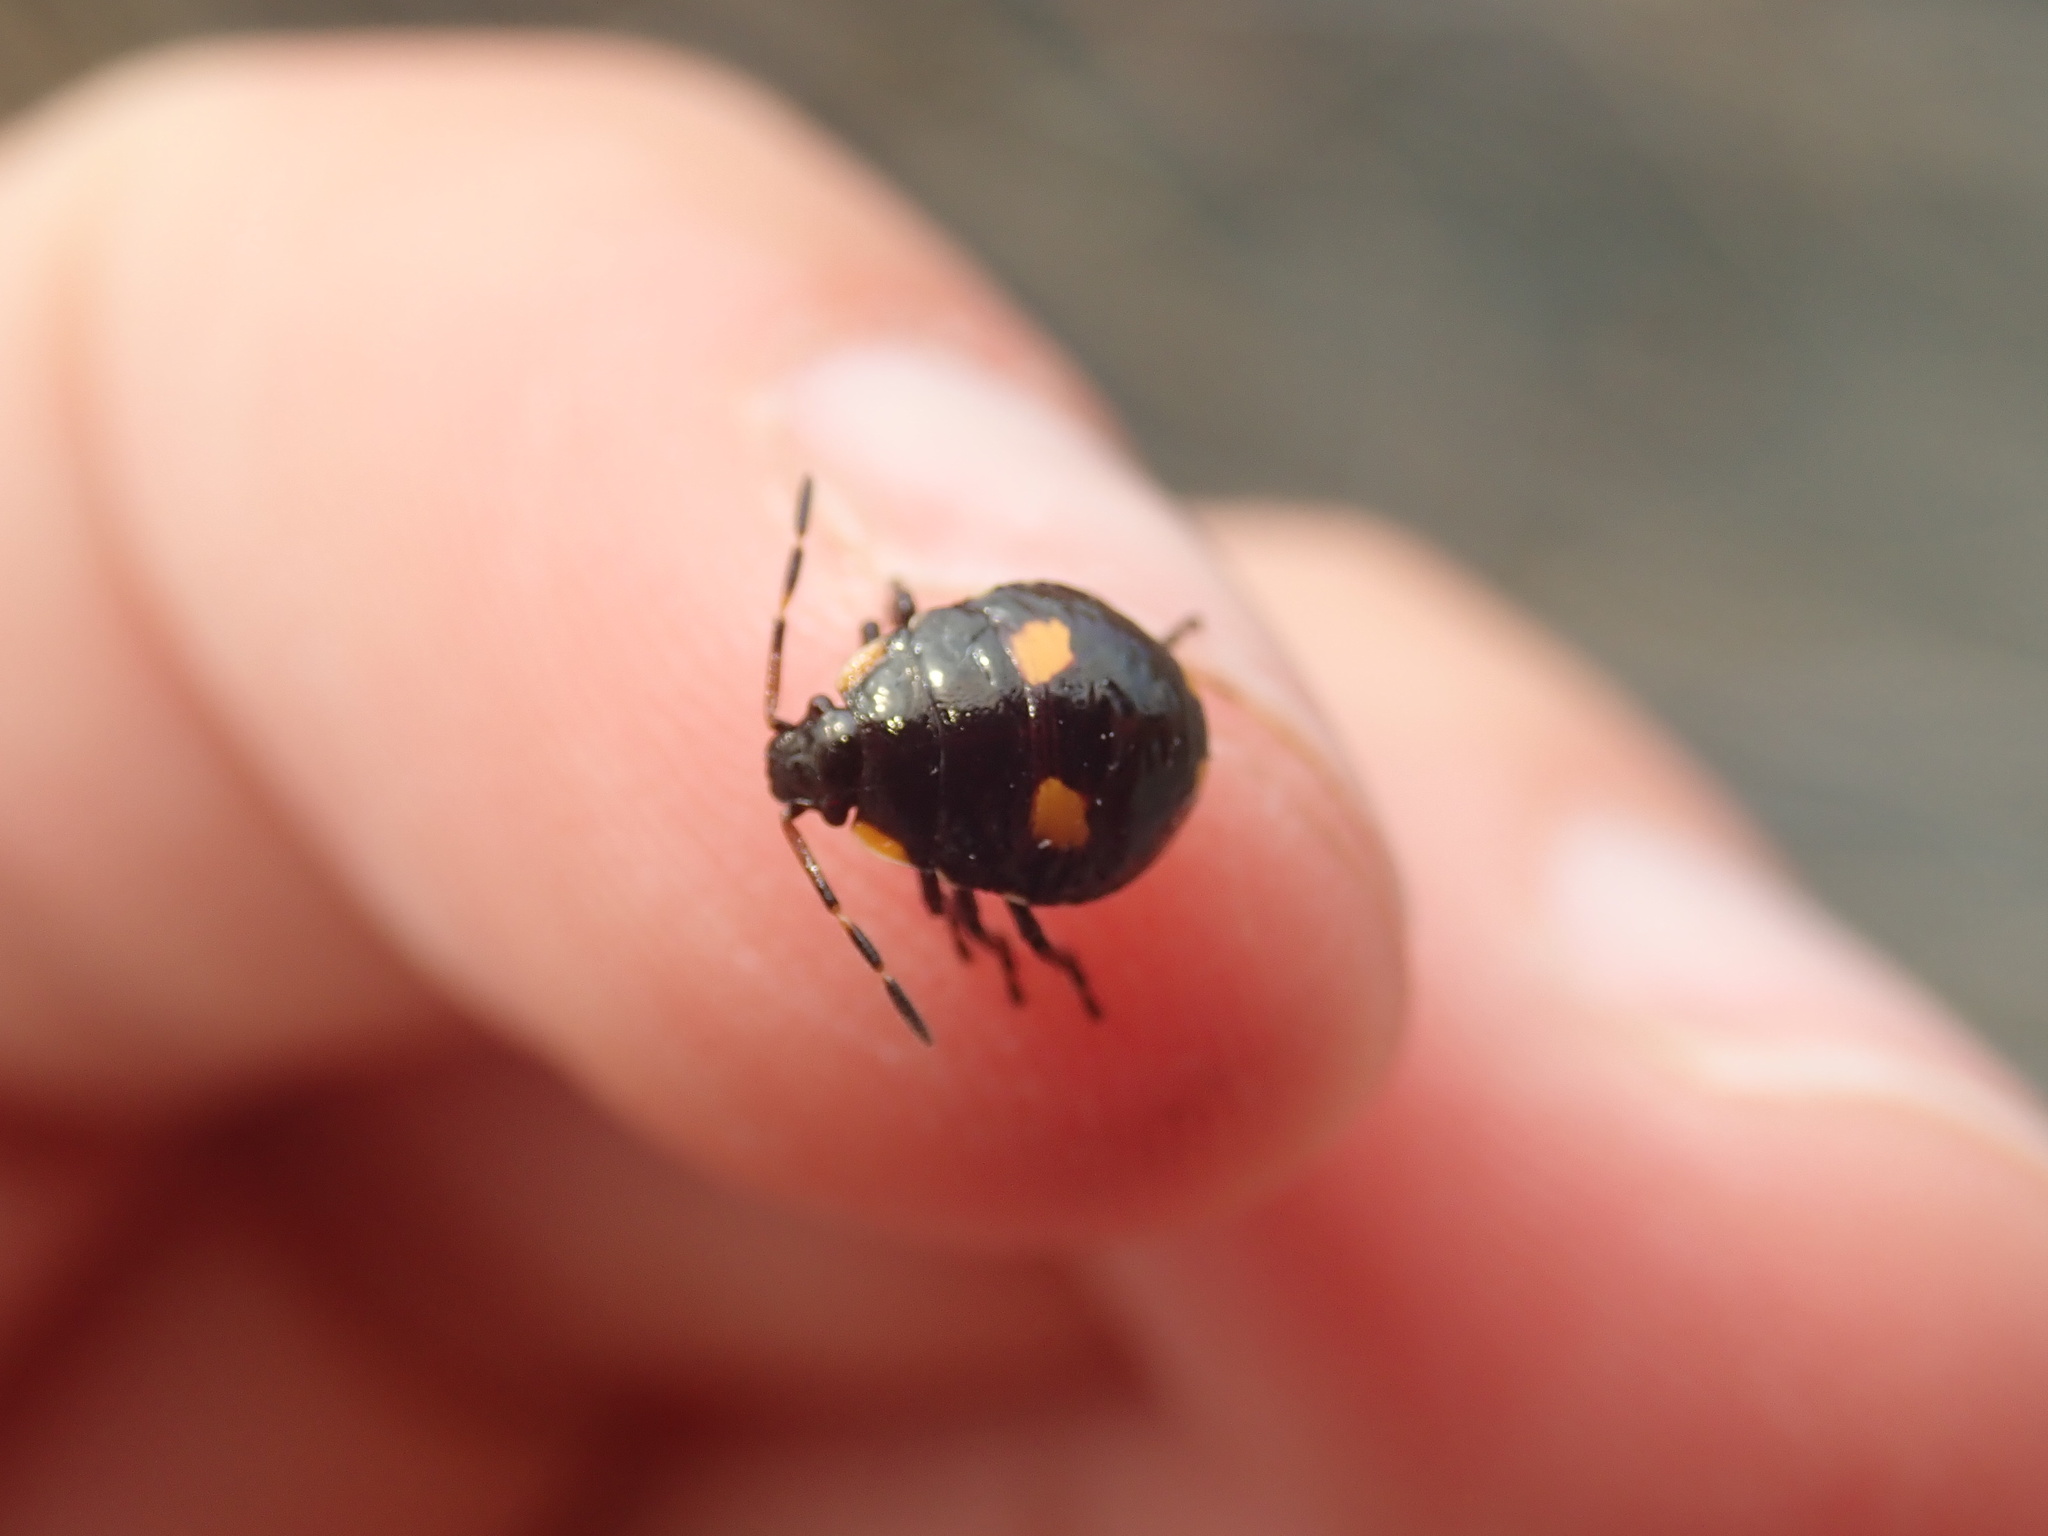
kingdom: Animalia
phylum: Arthropoda
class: Insecta
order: Hemiptera
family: Pentatomidae
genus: Cermatulus
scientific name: Cermatulus nasalis
